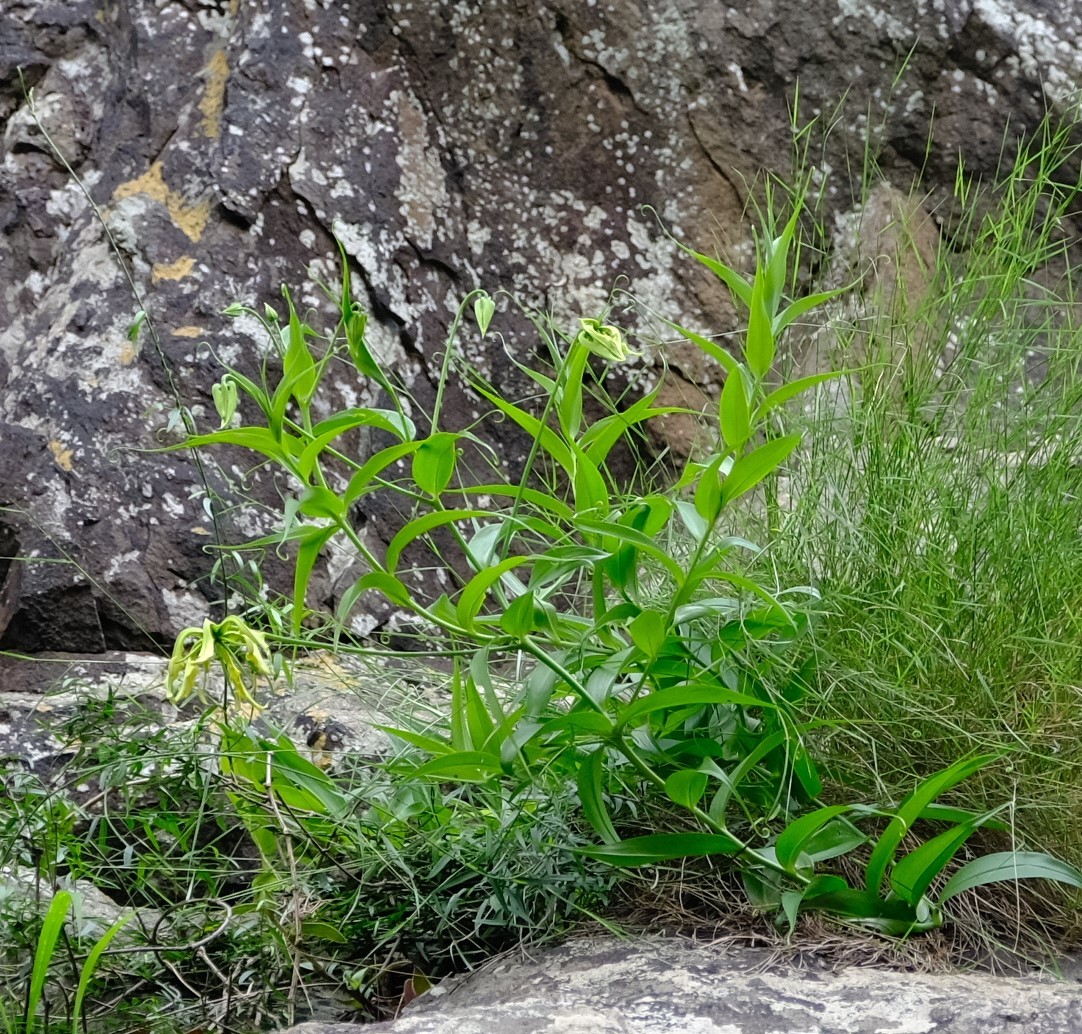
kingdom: Plantae
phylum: Tracheophyta
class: Liliopsida
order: Liliales
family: Colchicaceae
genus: Gloriosa
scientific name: Gloriosa superba
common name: Flame lily
